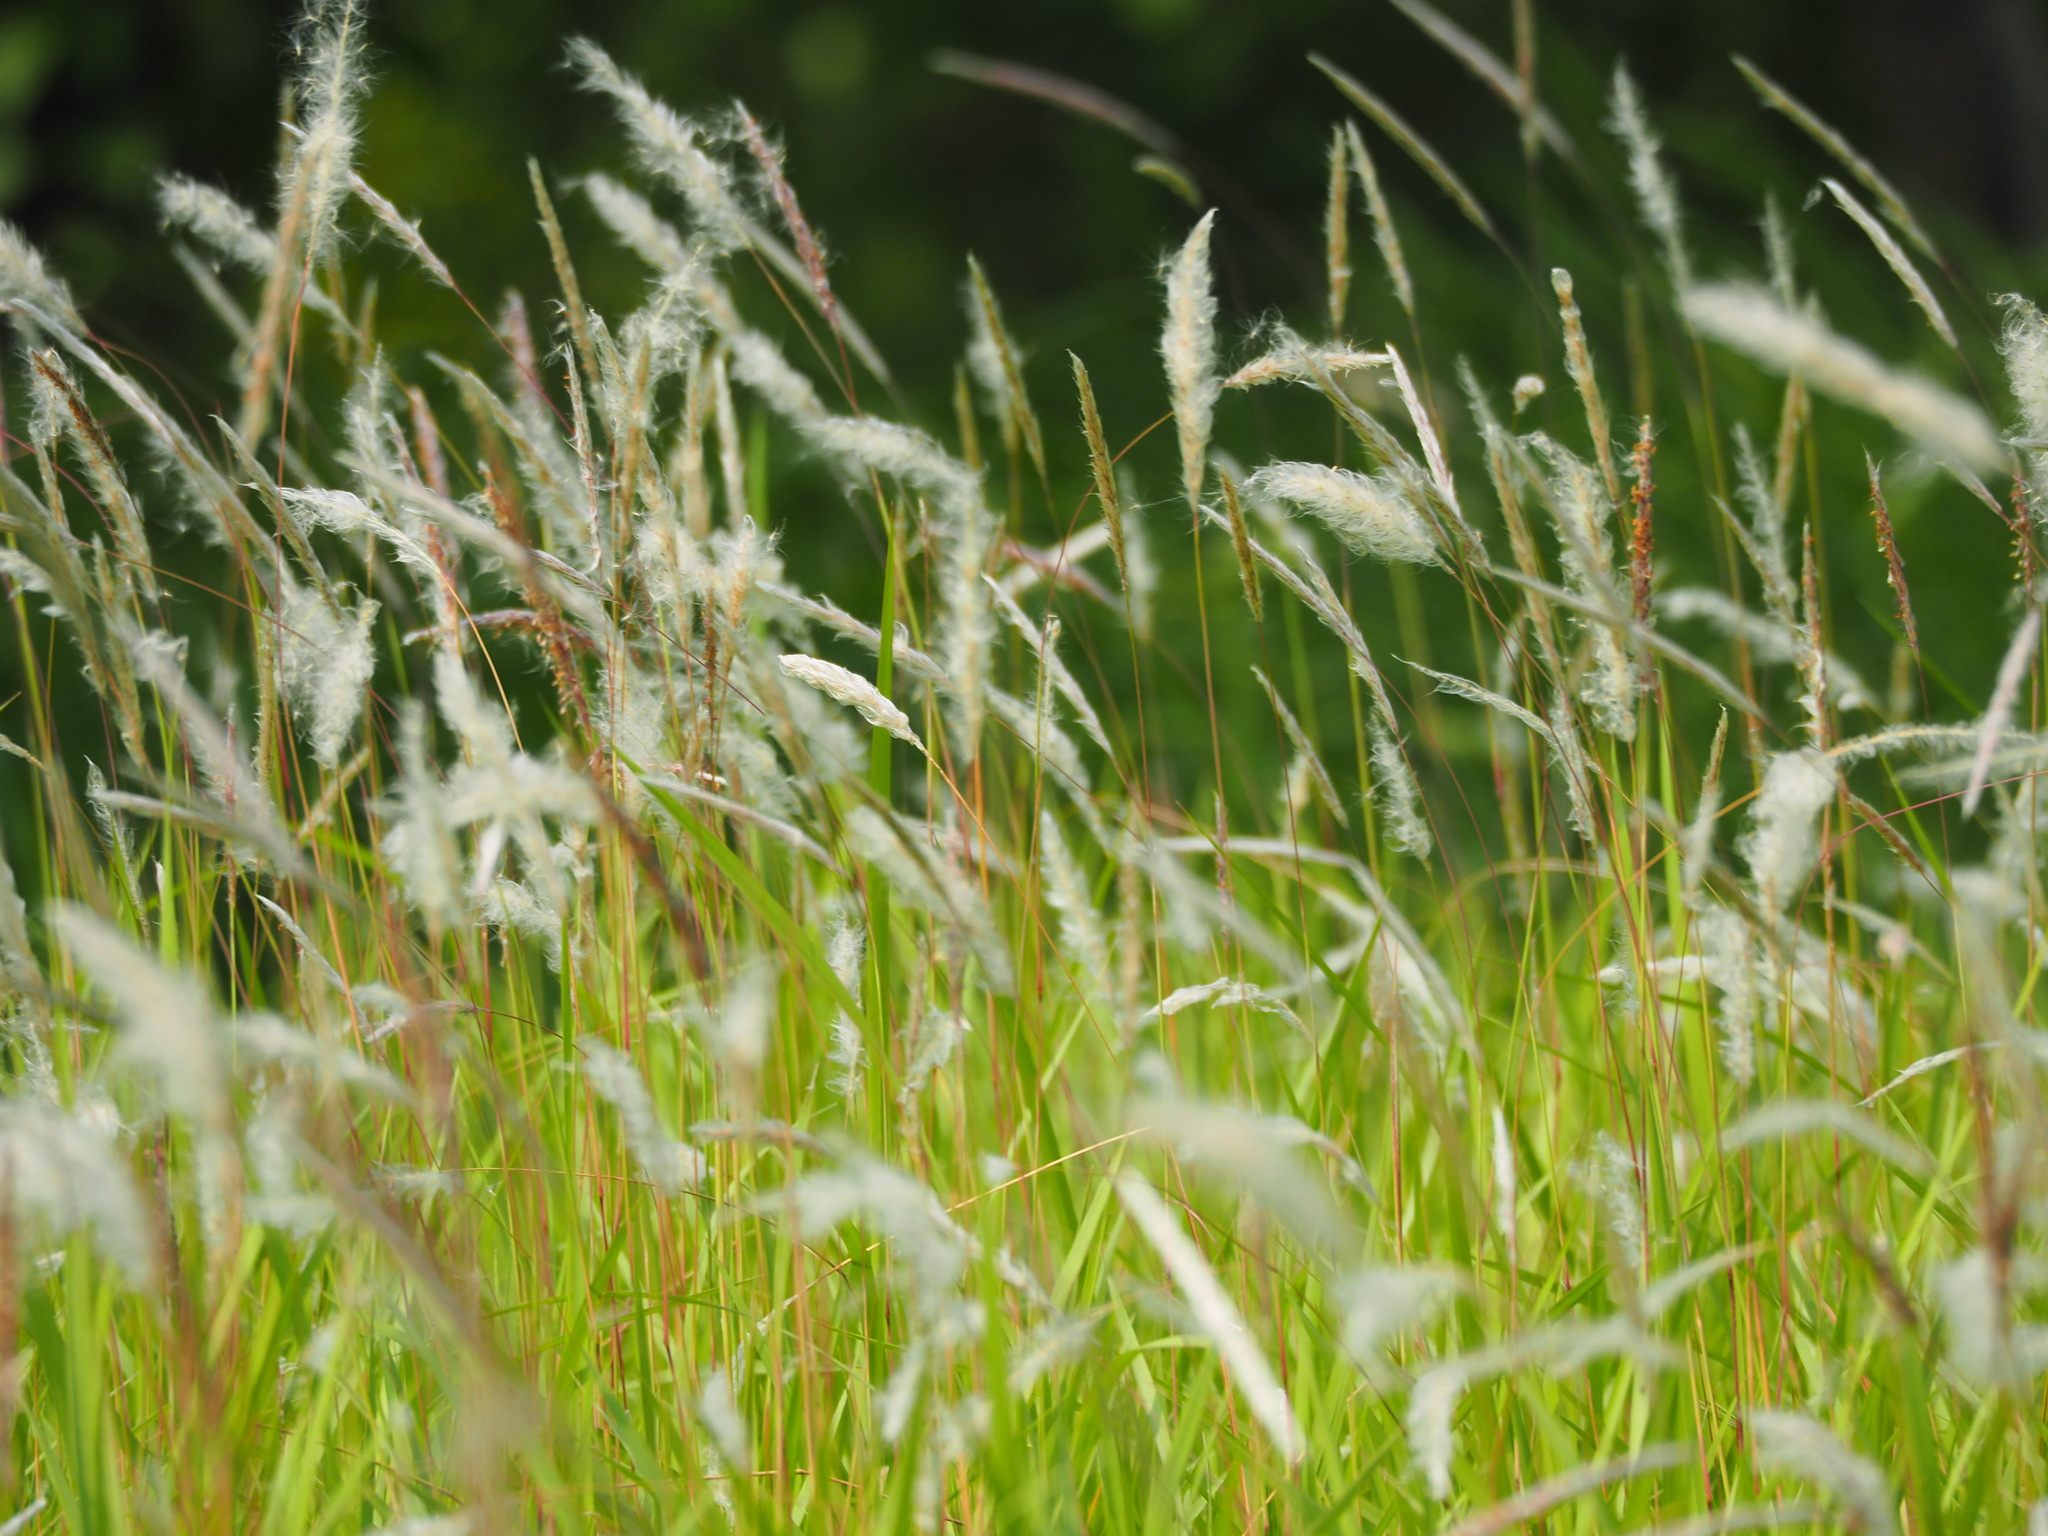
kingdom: Plantae
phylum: Tracheophyta
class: Liliopsida
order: Poales
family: Poaceae
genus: Imperata
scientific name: Imperata cylindrica
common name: Cogongrass
